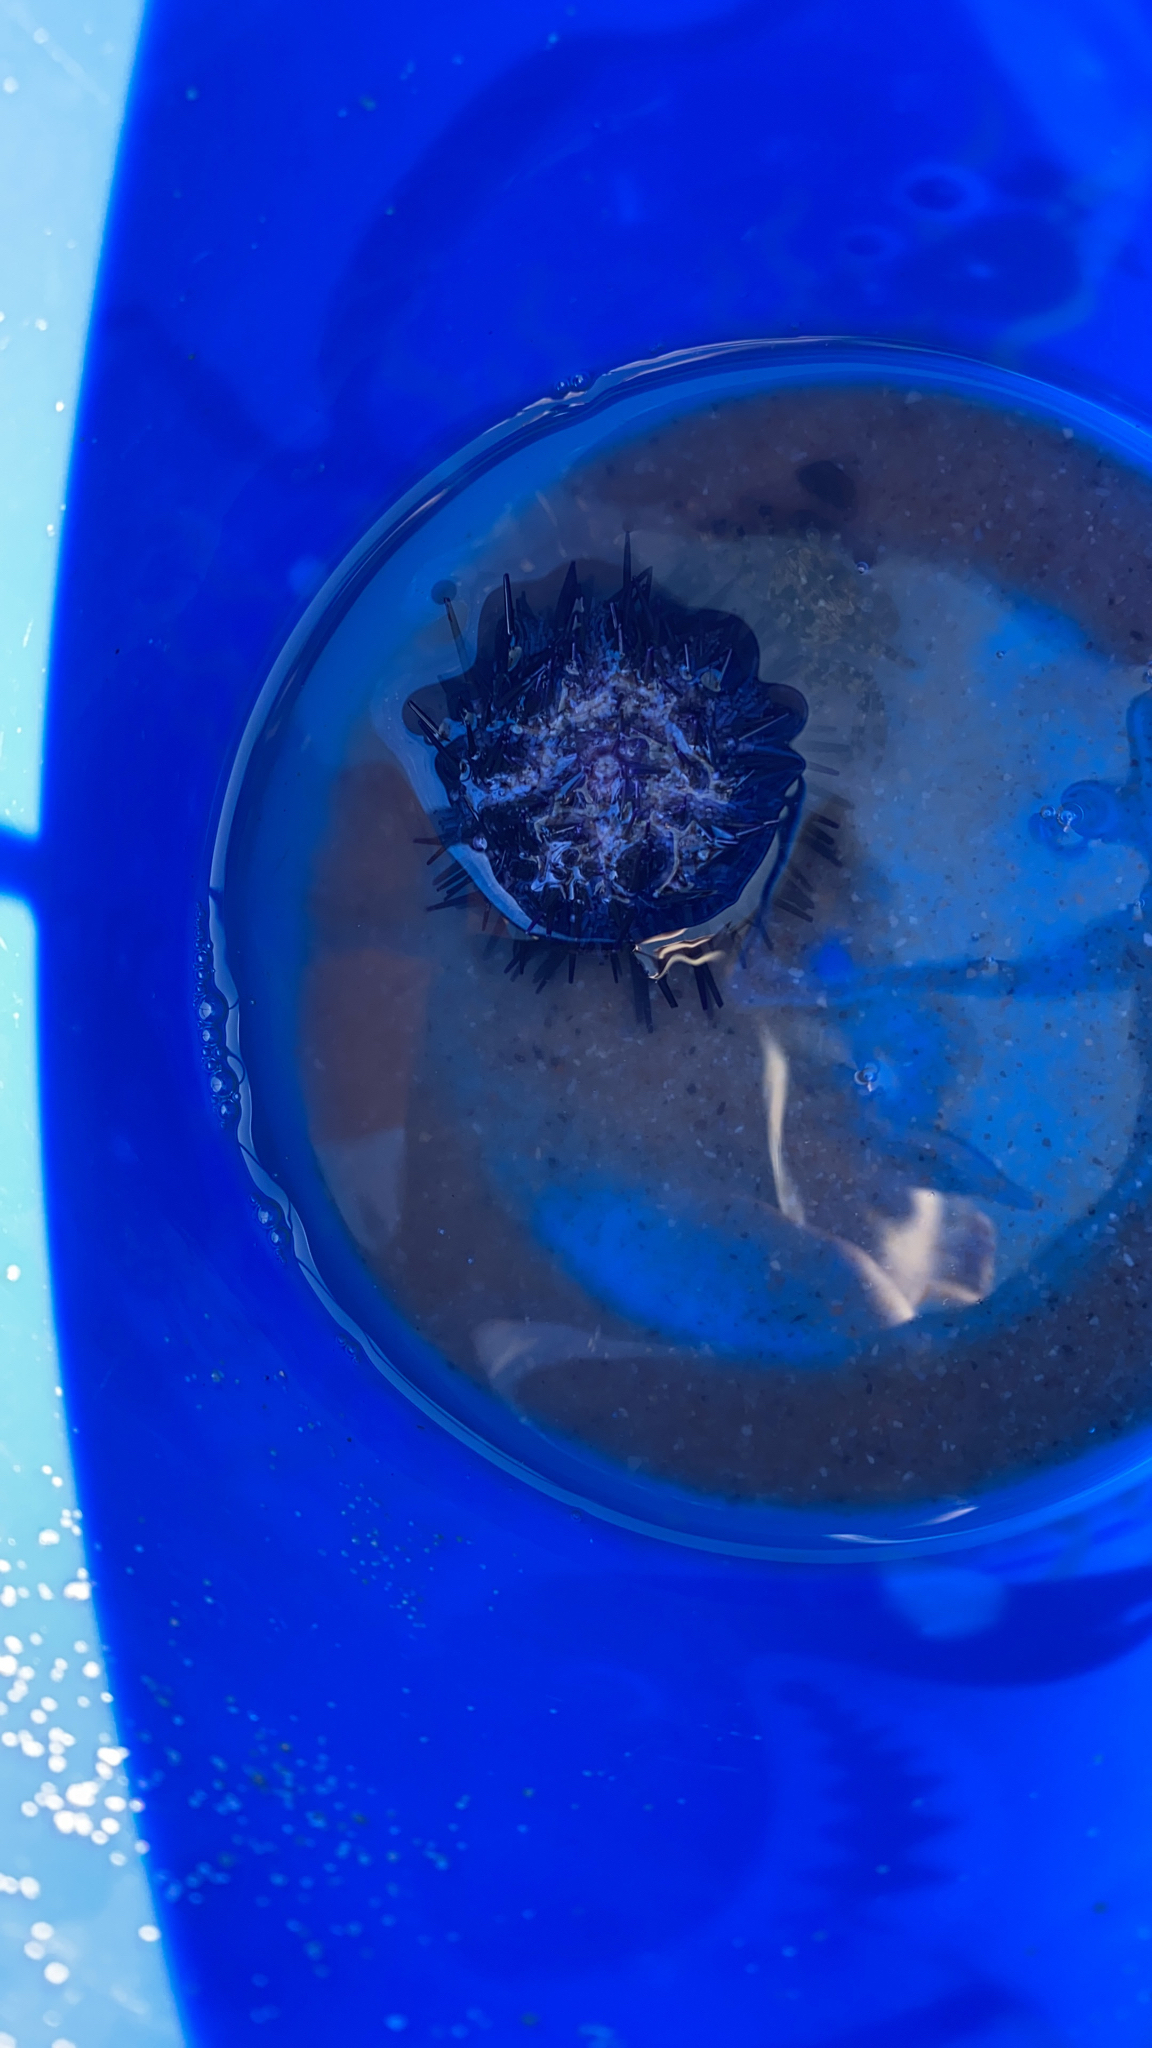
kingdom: Animalia
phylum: Echinodermata
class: Echinoidea
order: Camarodonta
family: Echinometridae
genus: Heliocidaris
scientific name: Heliocidaris erythrogramma
